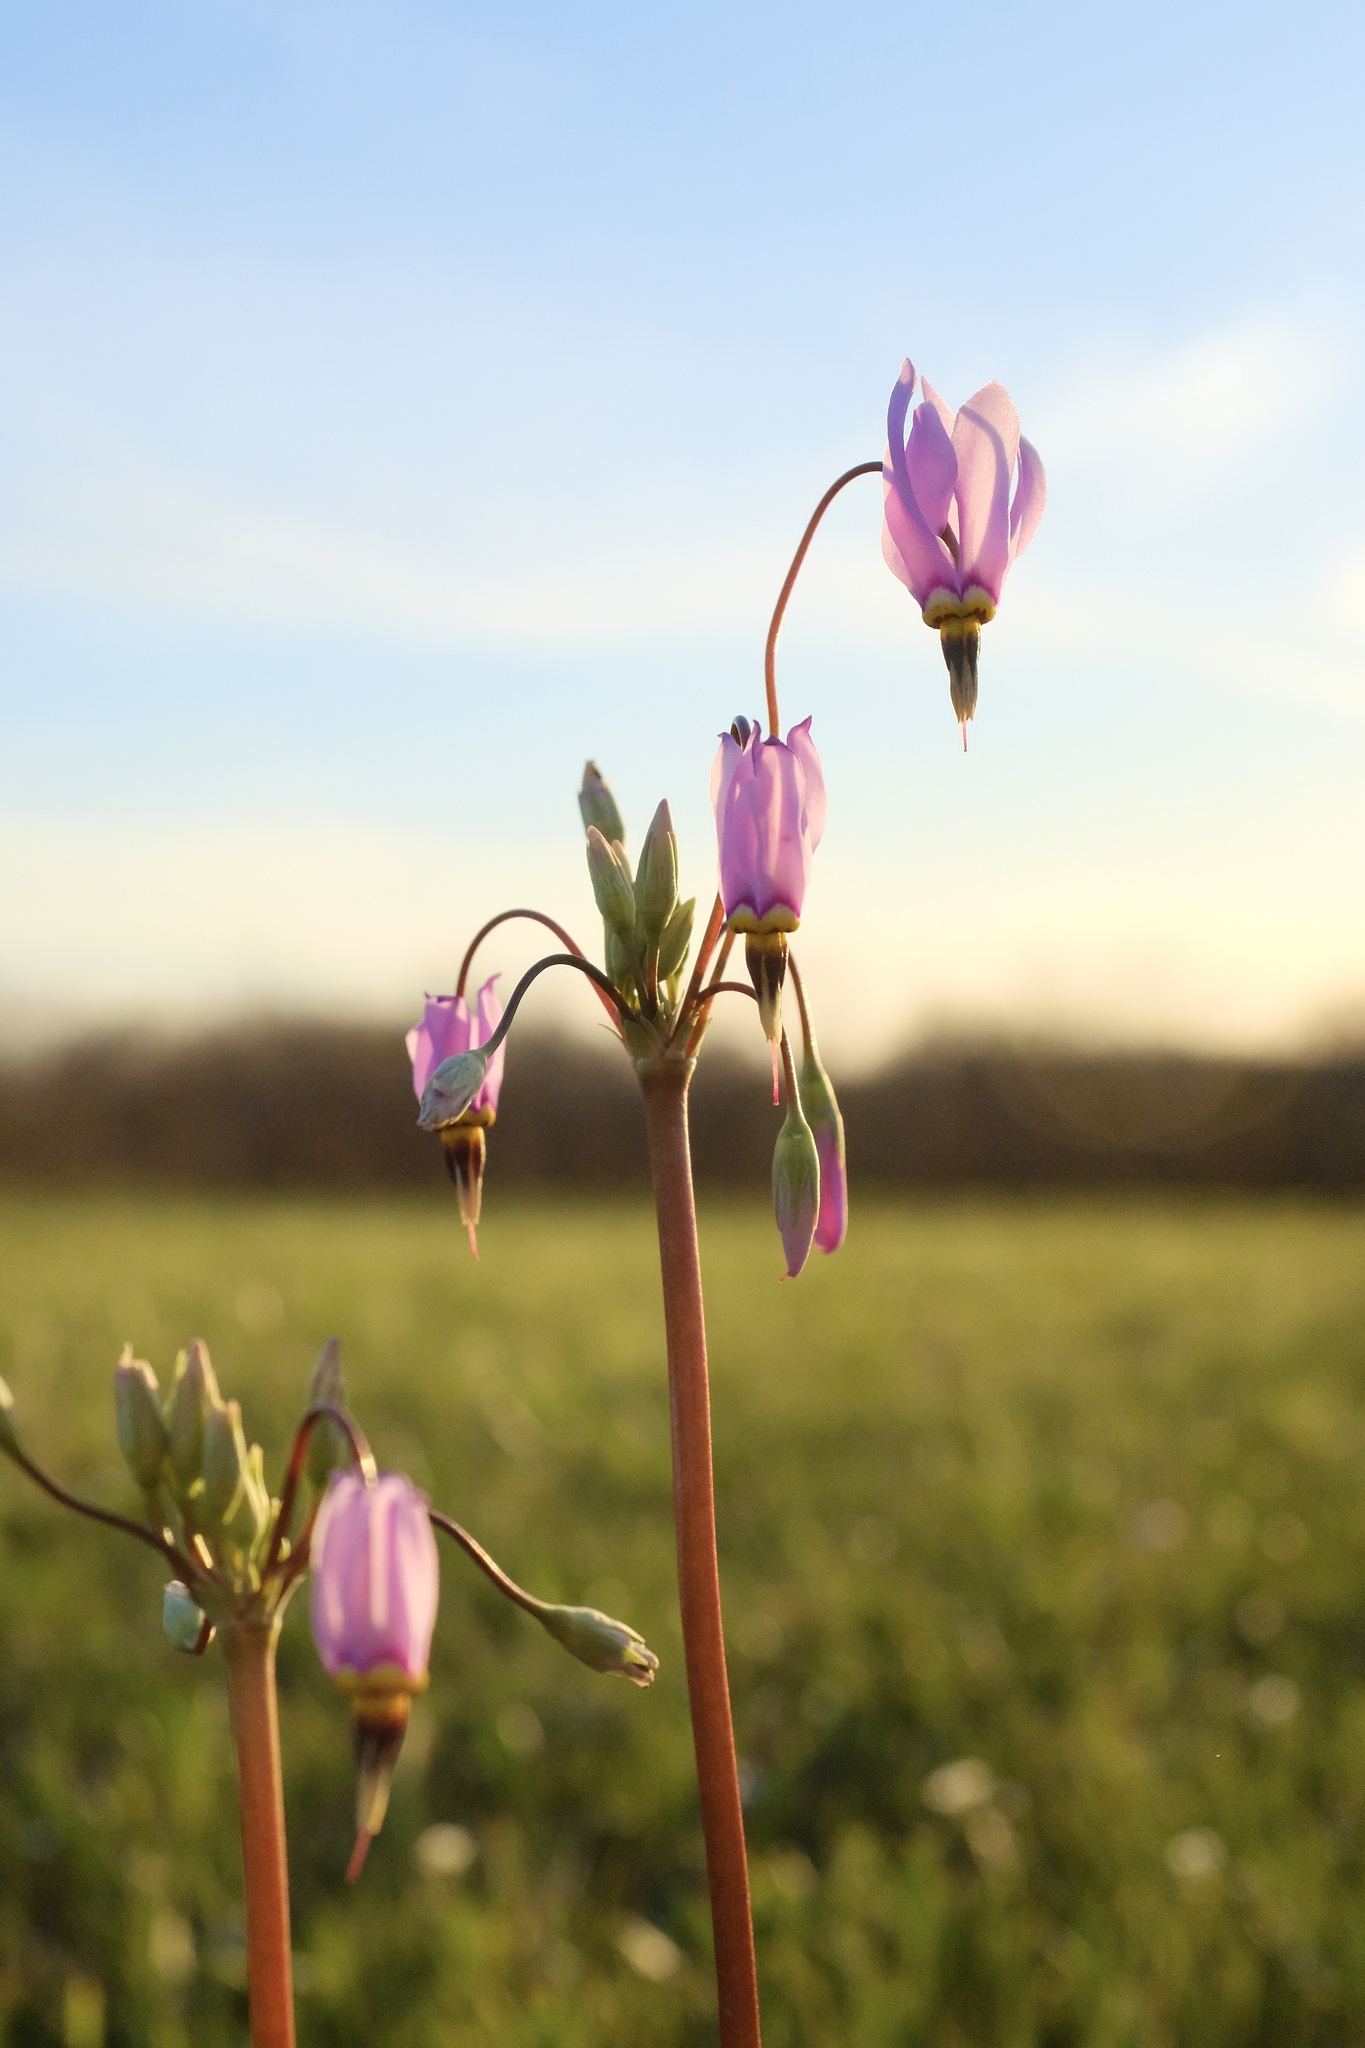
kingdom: Plantae
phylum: Tracheophyta
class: Magnoliopsida
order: Ericales
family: Primulaceae
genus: Dodecatheon
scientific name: Dodecatheon meadia
